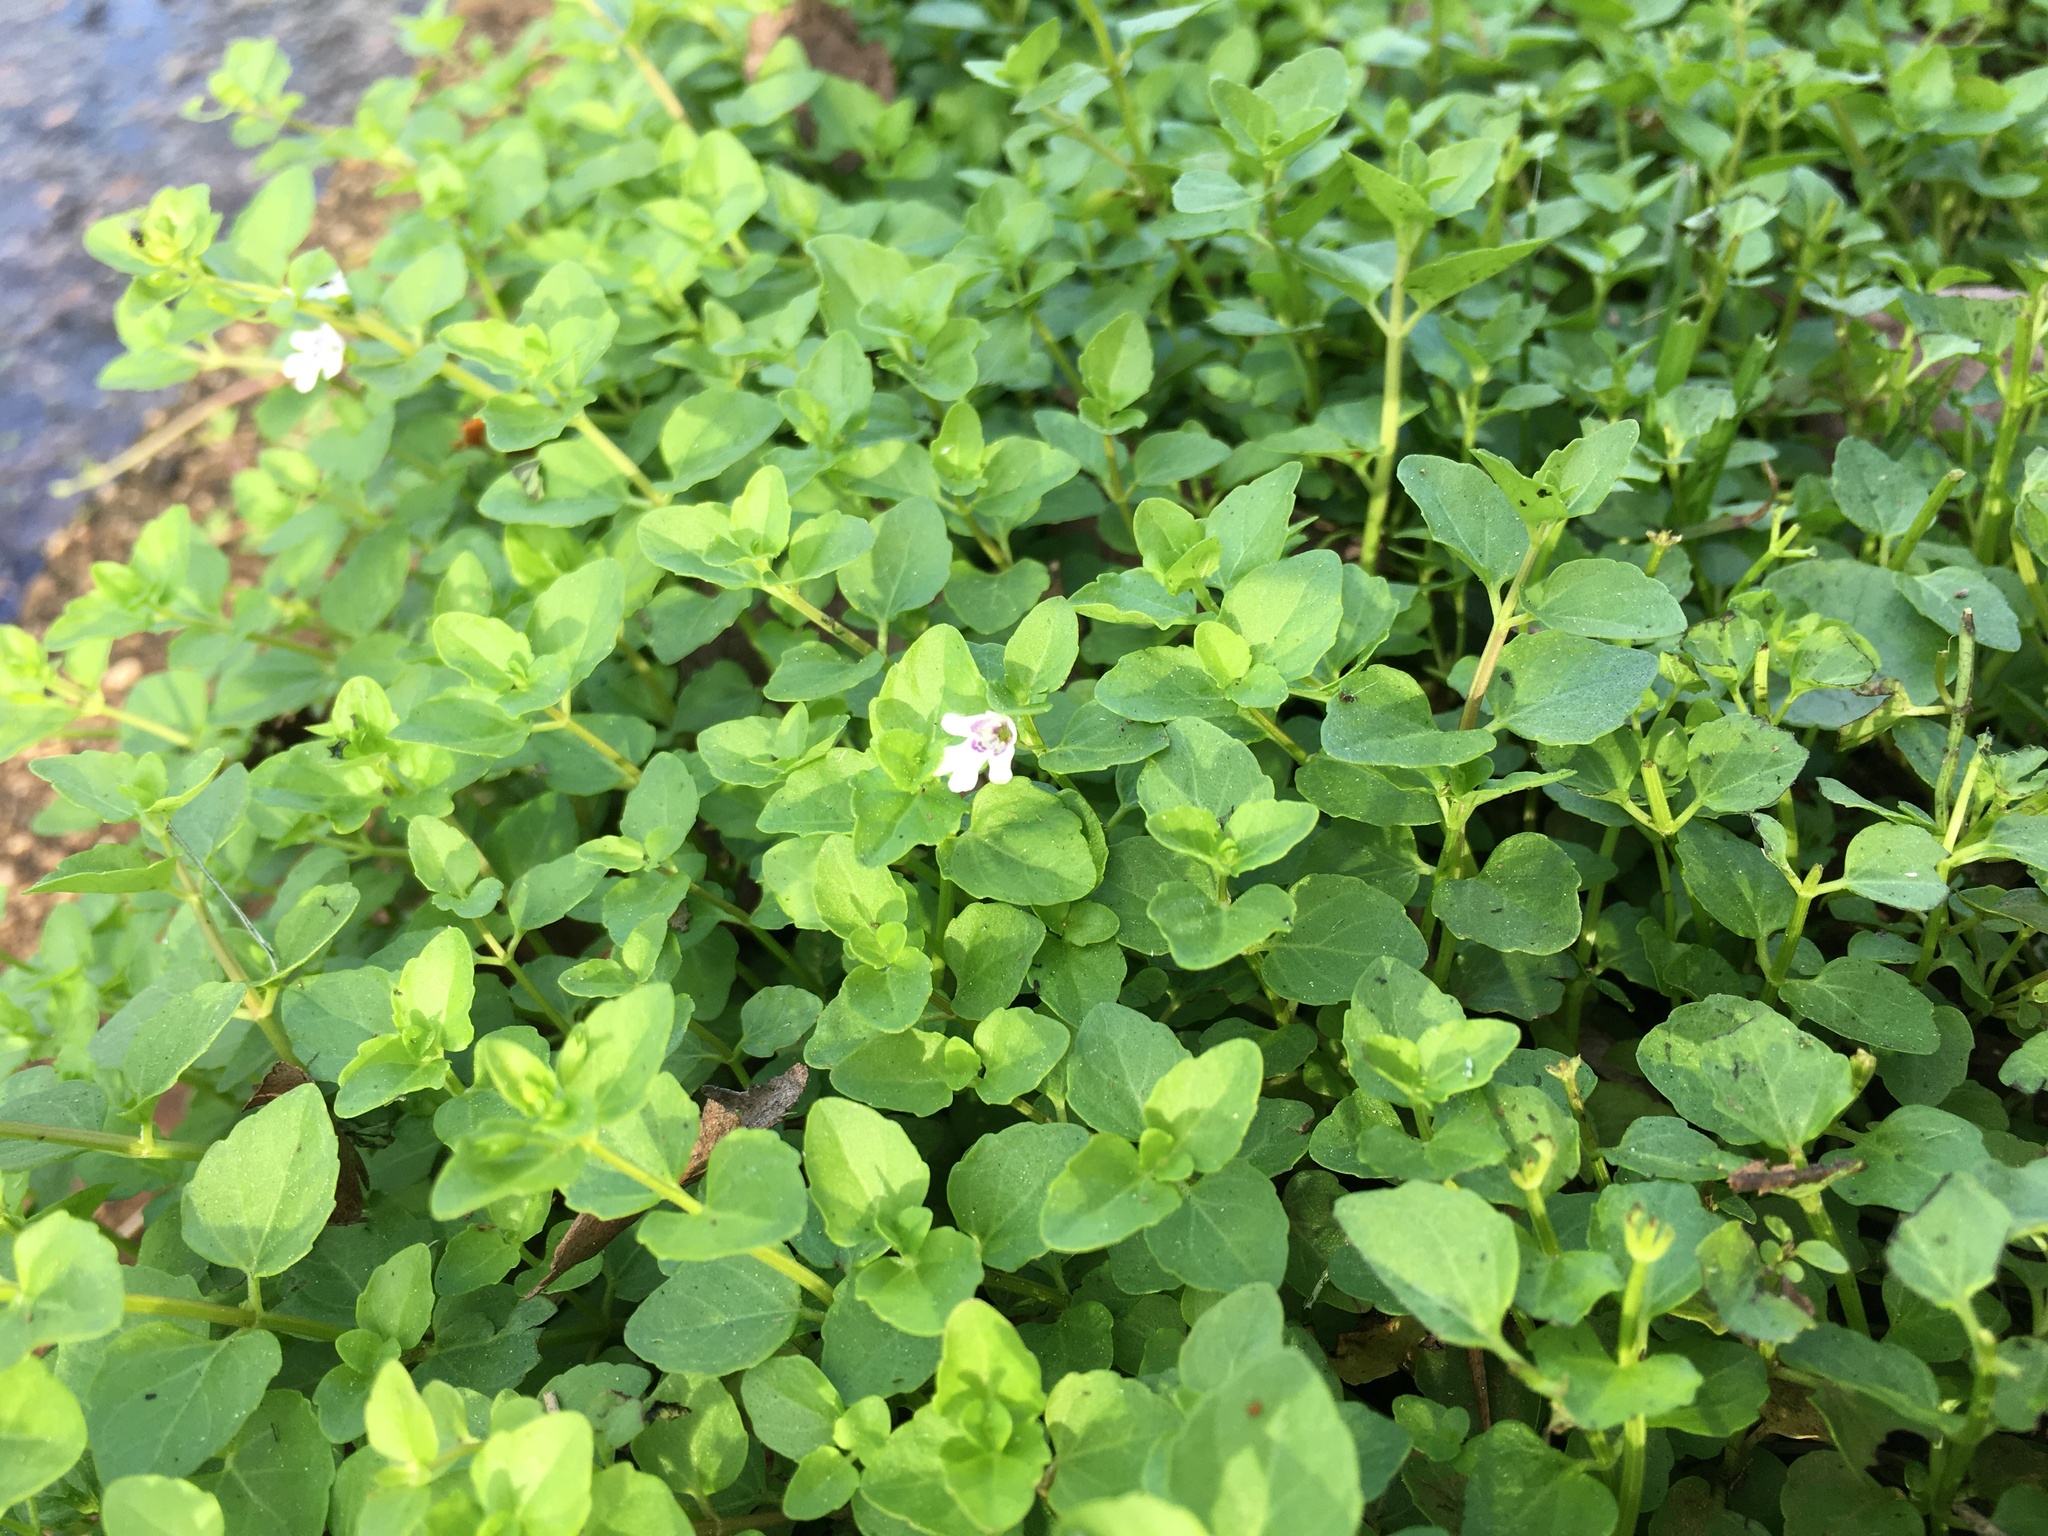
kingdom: Plantae
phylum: Tracheophyta
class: Magnoliopsida
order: Lamiales
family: Lamiaceae
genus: Clinopodium
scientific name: Clinopodium brownei
